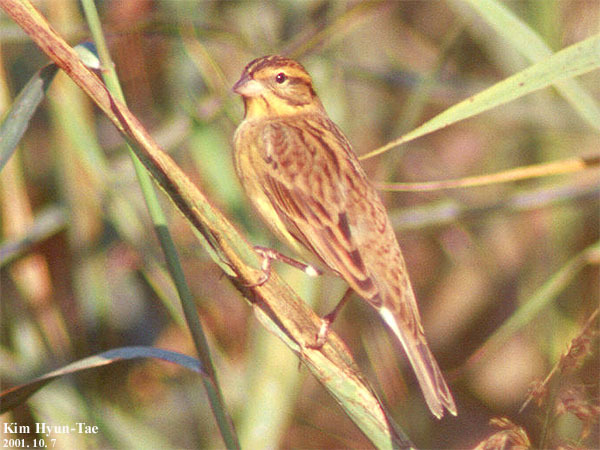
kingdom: Animalia
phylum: Chordata
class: Aves
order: Passeriformes
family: Emberizidae
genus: Emberiza
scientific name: Emberiza aureola
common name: Yellow-breasted bunting
